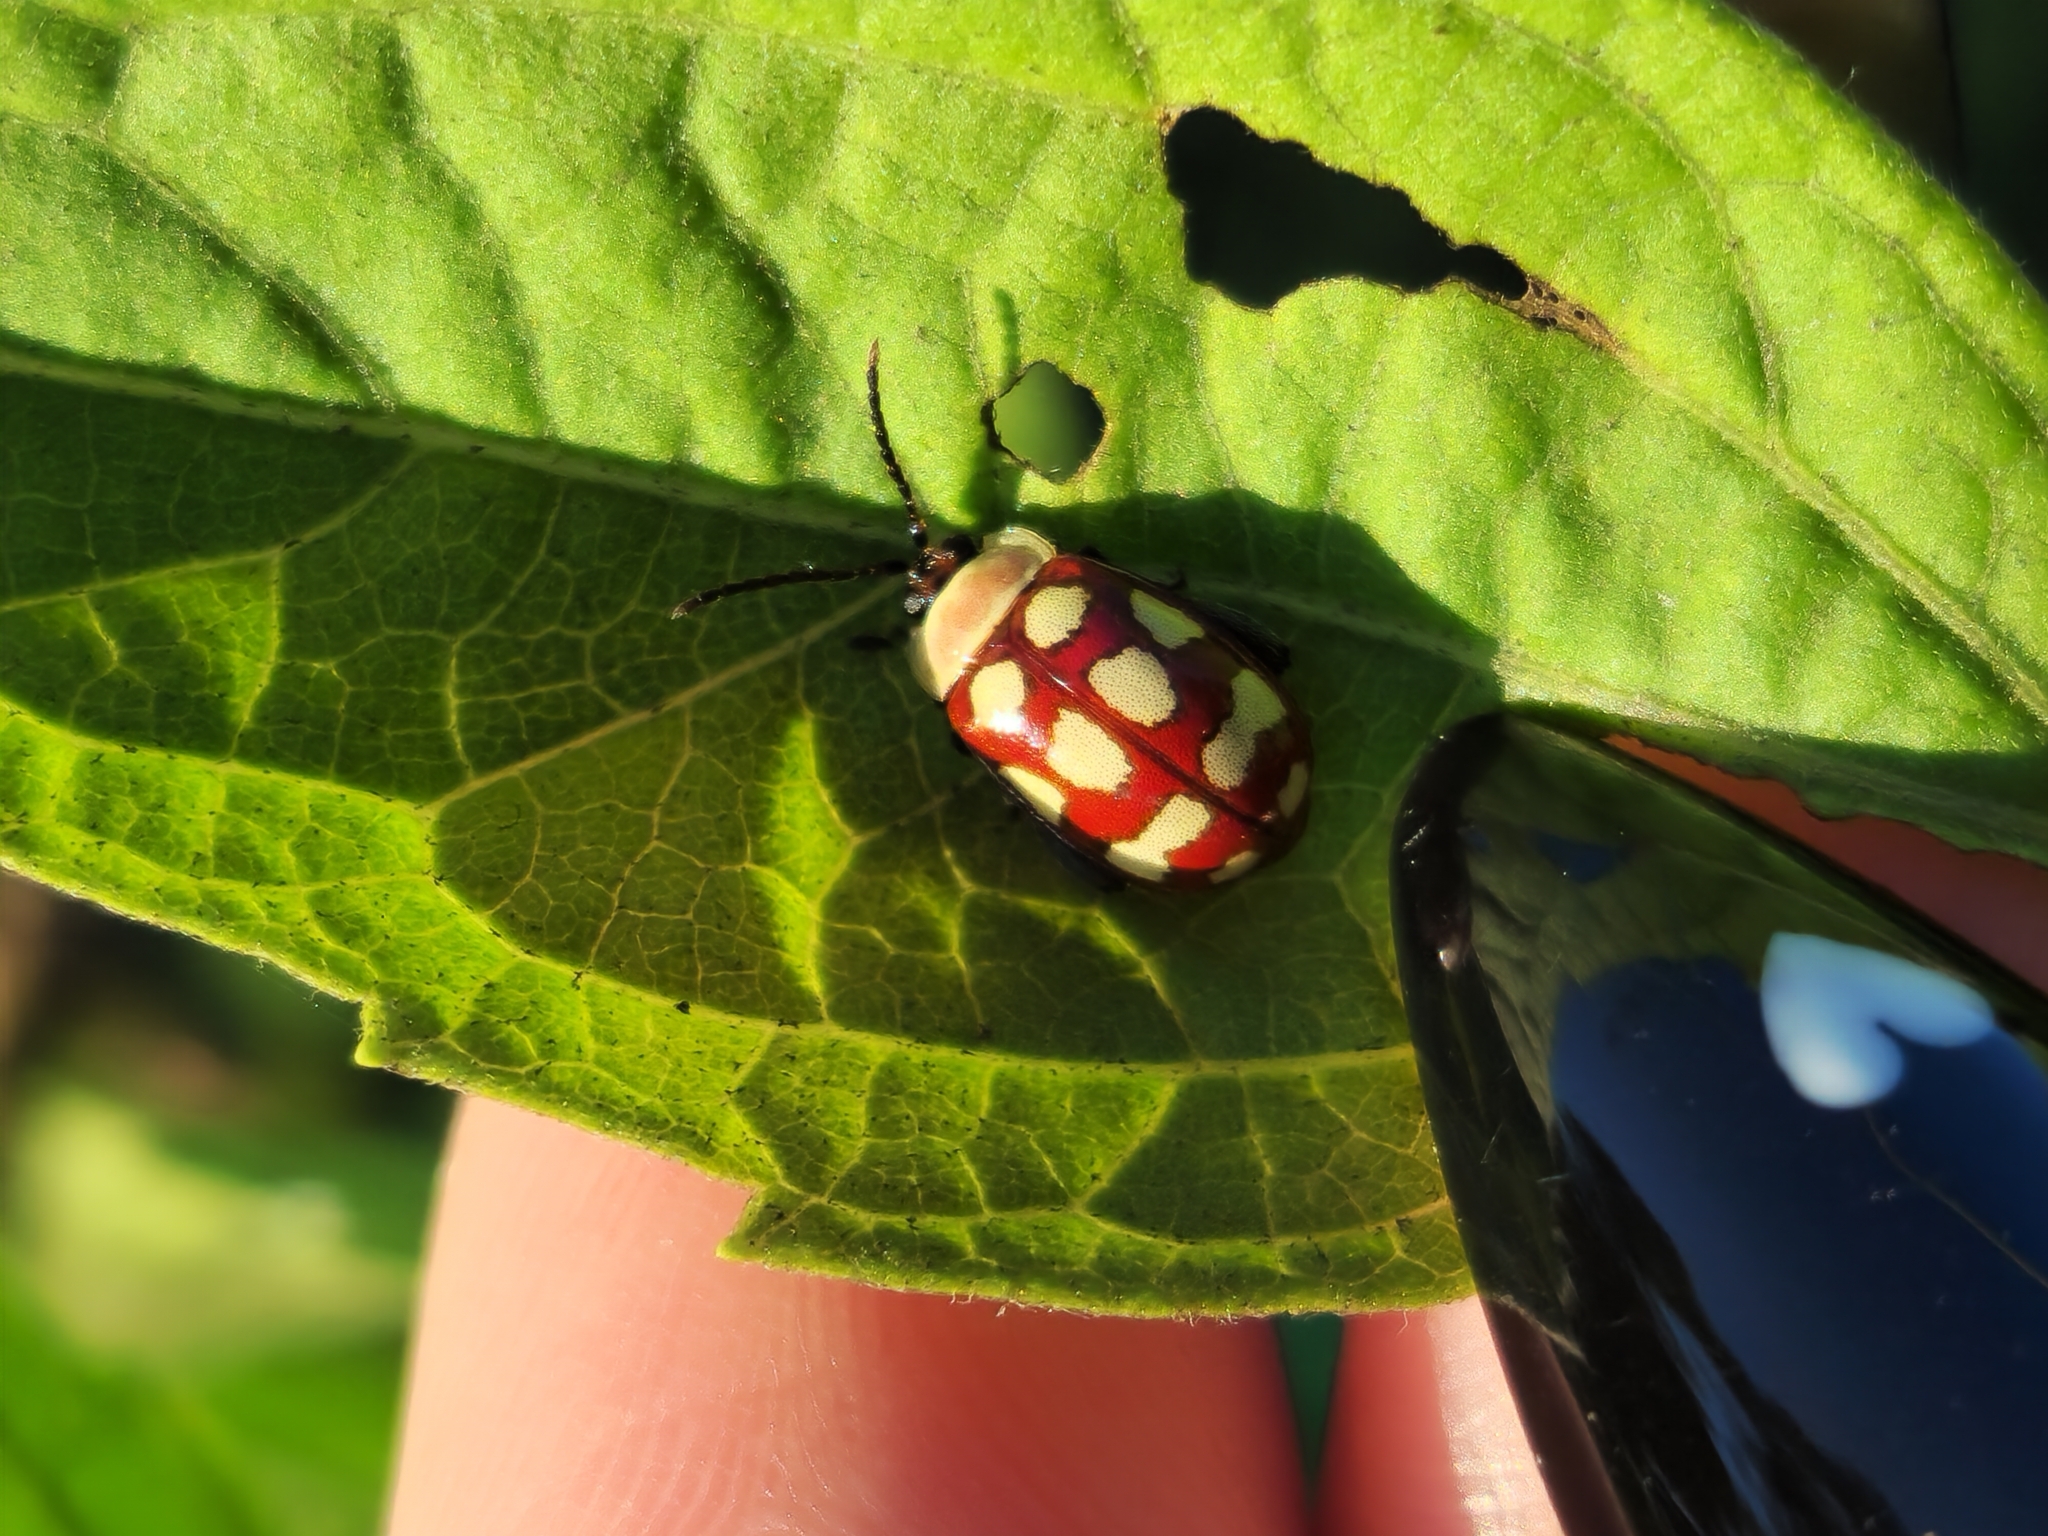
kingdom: Animalia
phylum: Arthropoda
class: Insecta
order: Coleoptera
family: Chrysomelidae
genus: Alagoasa
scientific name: Alagoasa decemguttata
